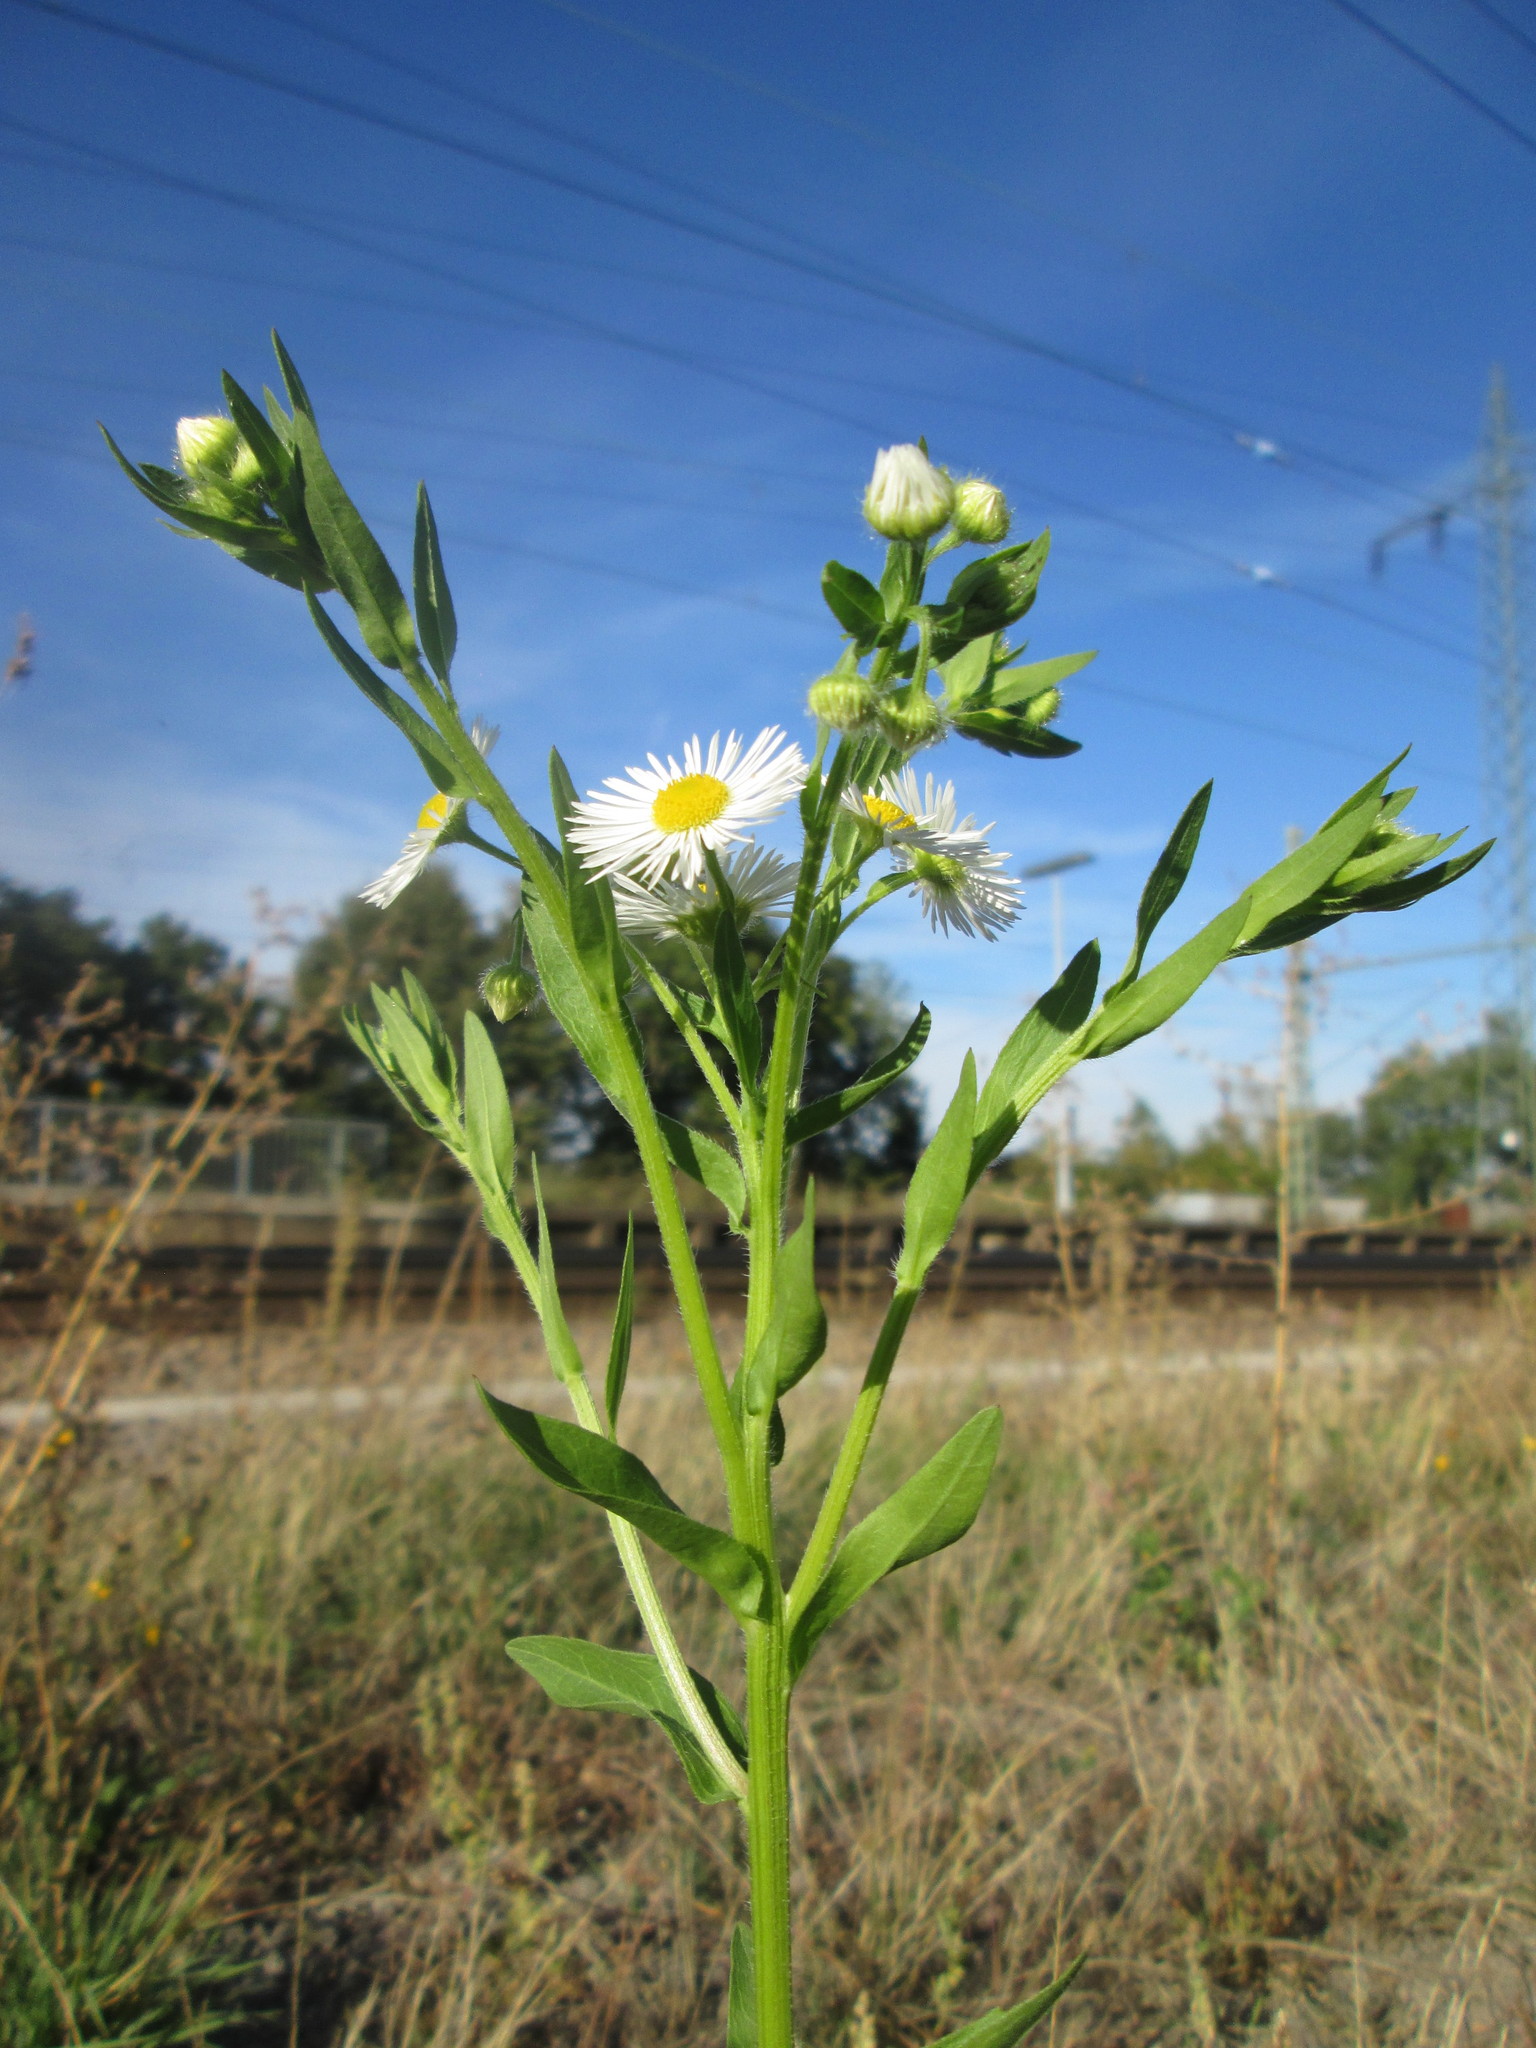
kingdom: Plantae
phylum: Tracheophyta
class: Magnoliopsida
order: Asterales
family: Asteraceae
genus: Erigeron
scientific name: Erigeron annuus
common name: Tall fleabane
